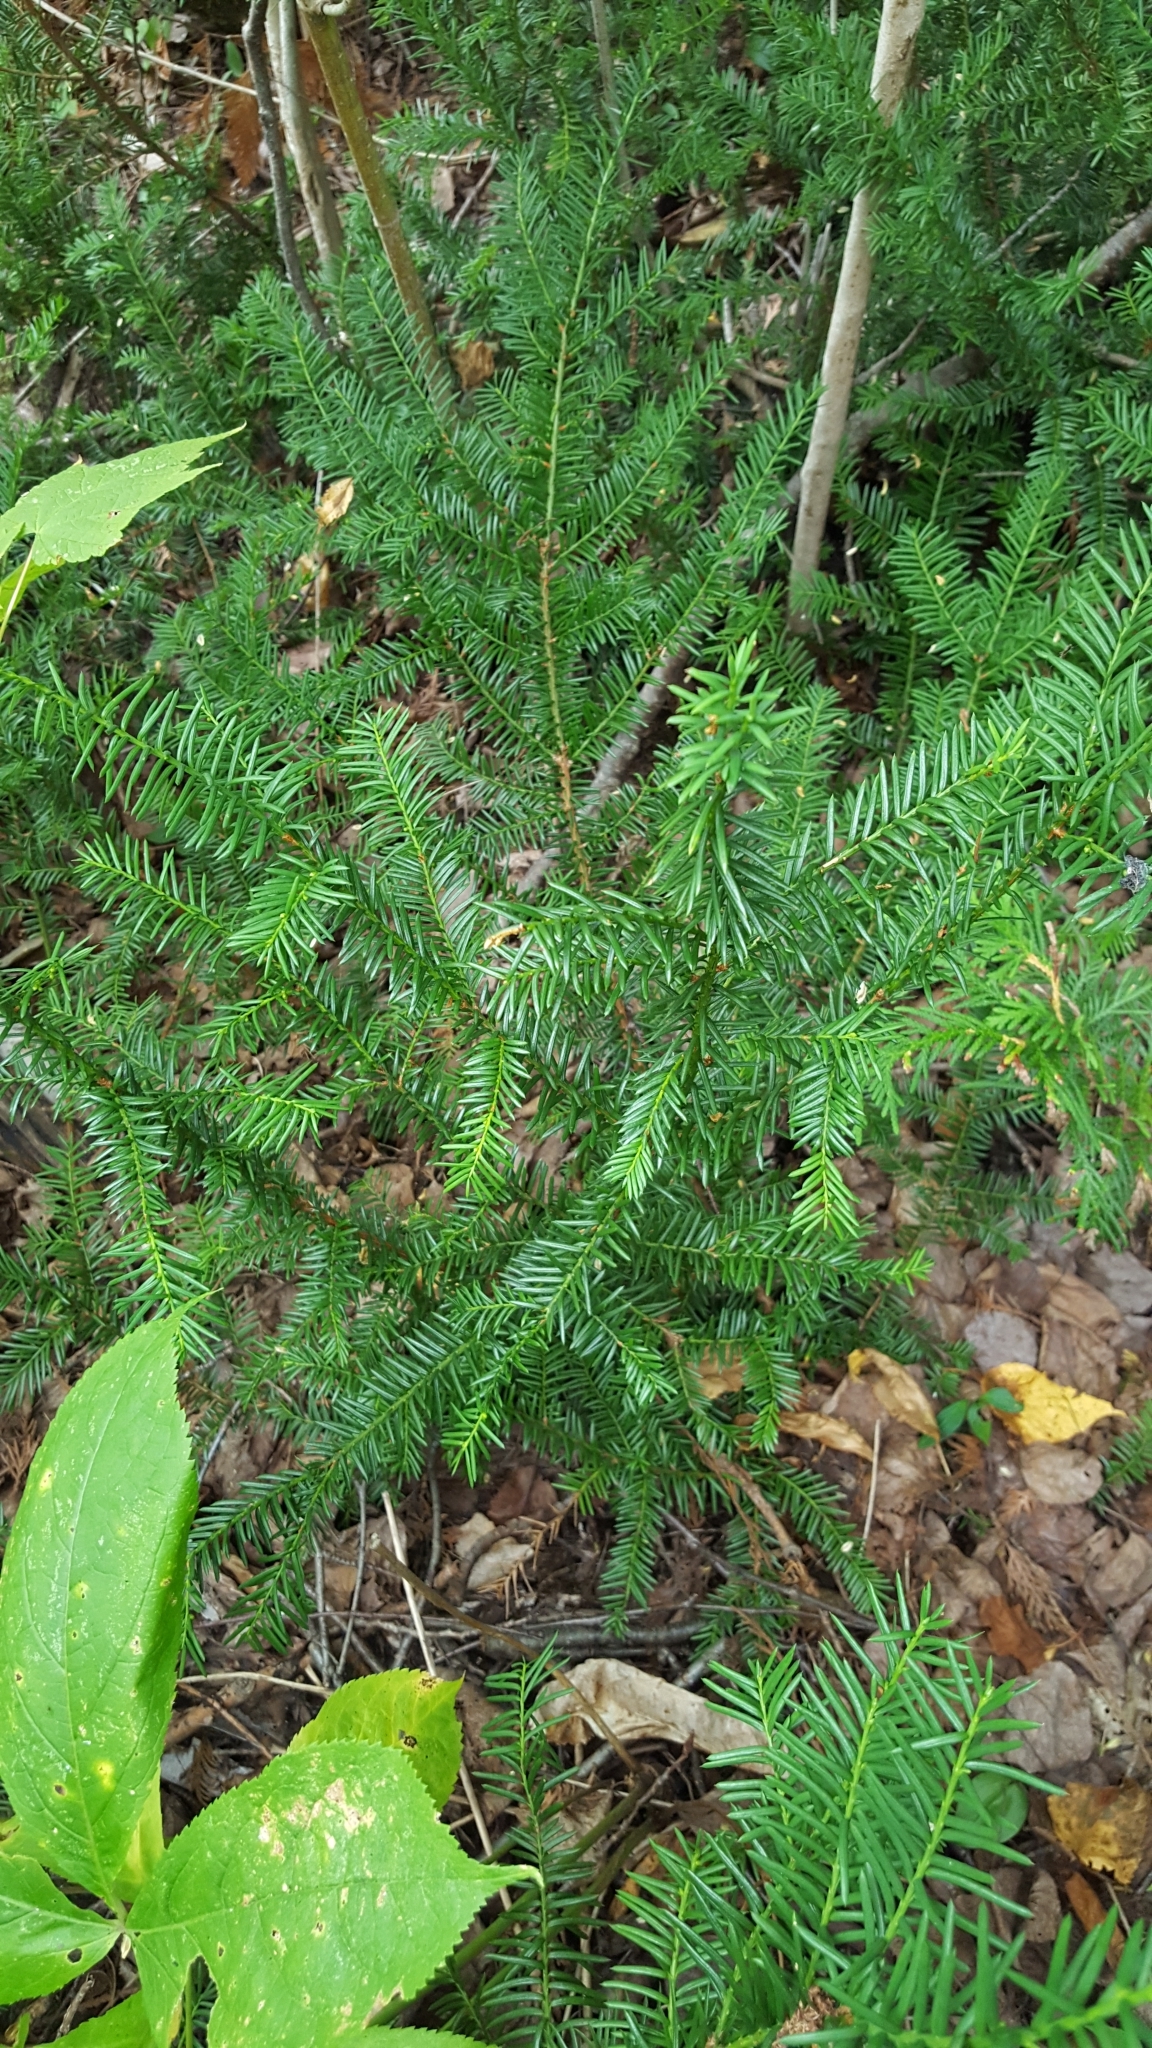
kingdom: Plantae
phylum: Tracheophyta
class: Pinopsida
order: Pinales
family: Taxaceae
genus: Taxus
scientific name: Taxus canadensis
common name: American yew
